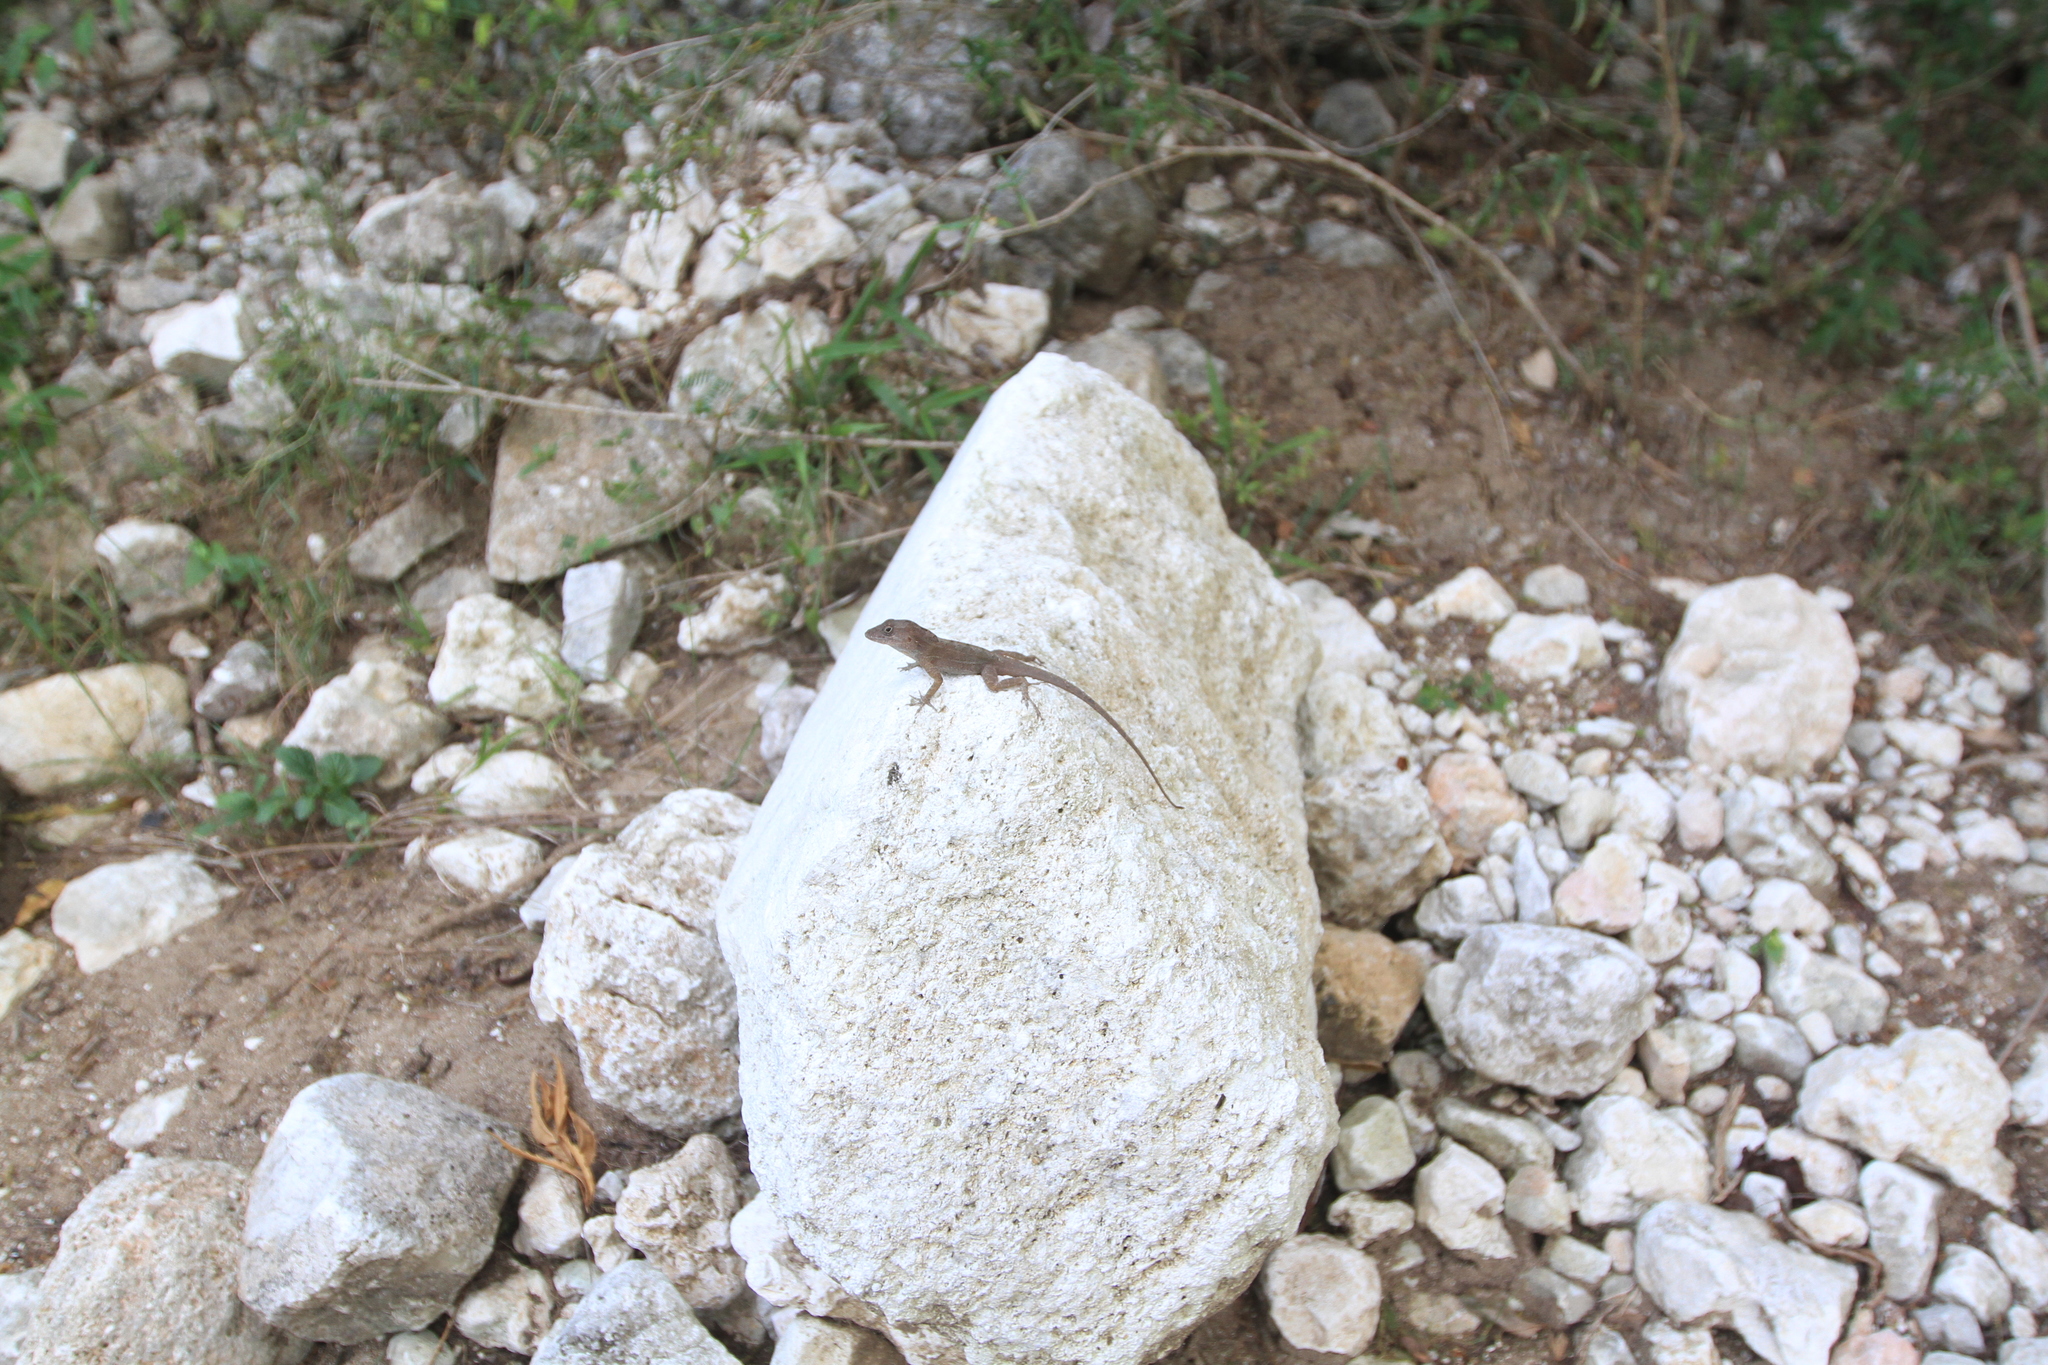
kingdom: Animalia
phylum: Chordata
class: Squamata
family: Dactyloidae
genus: Anolis
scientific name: Anolis cybotes
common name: Large-headed anole
